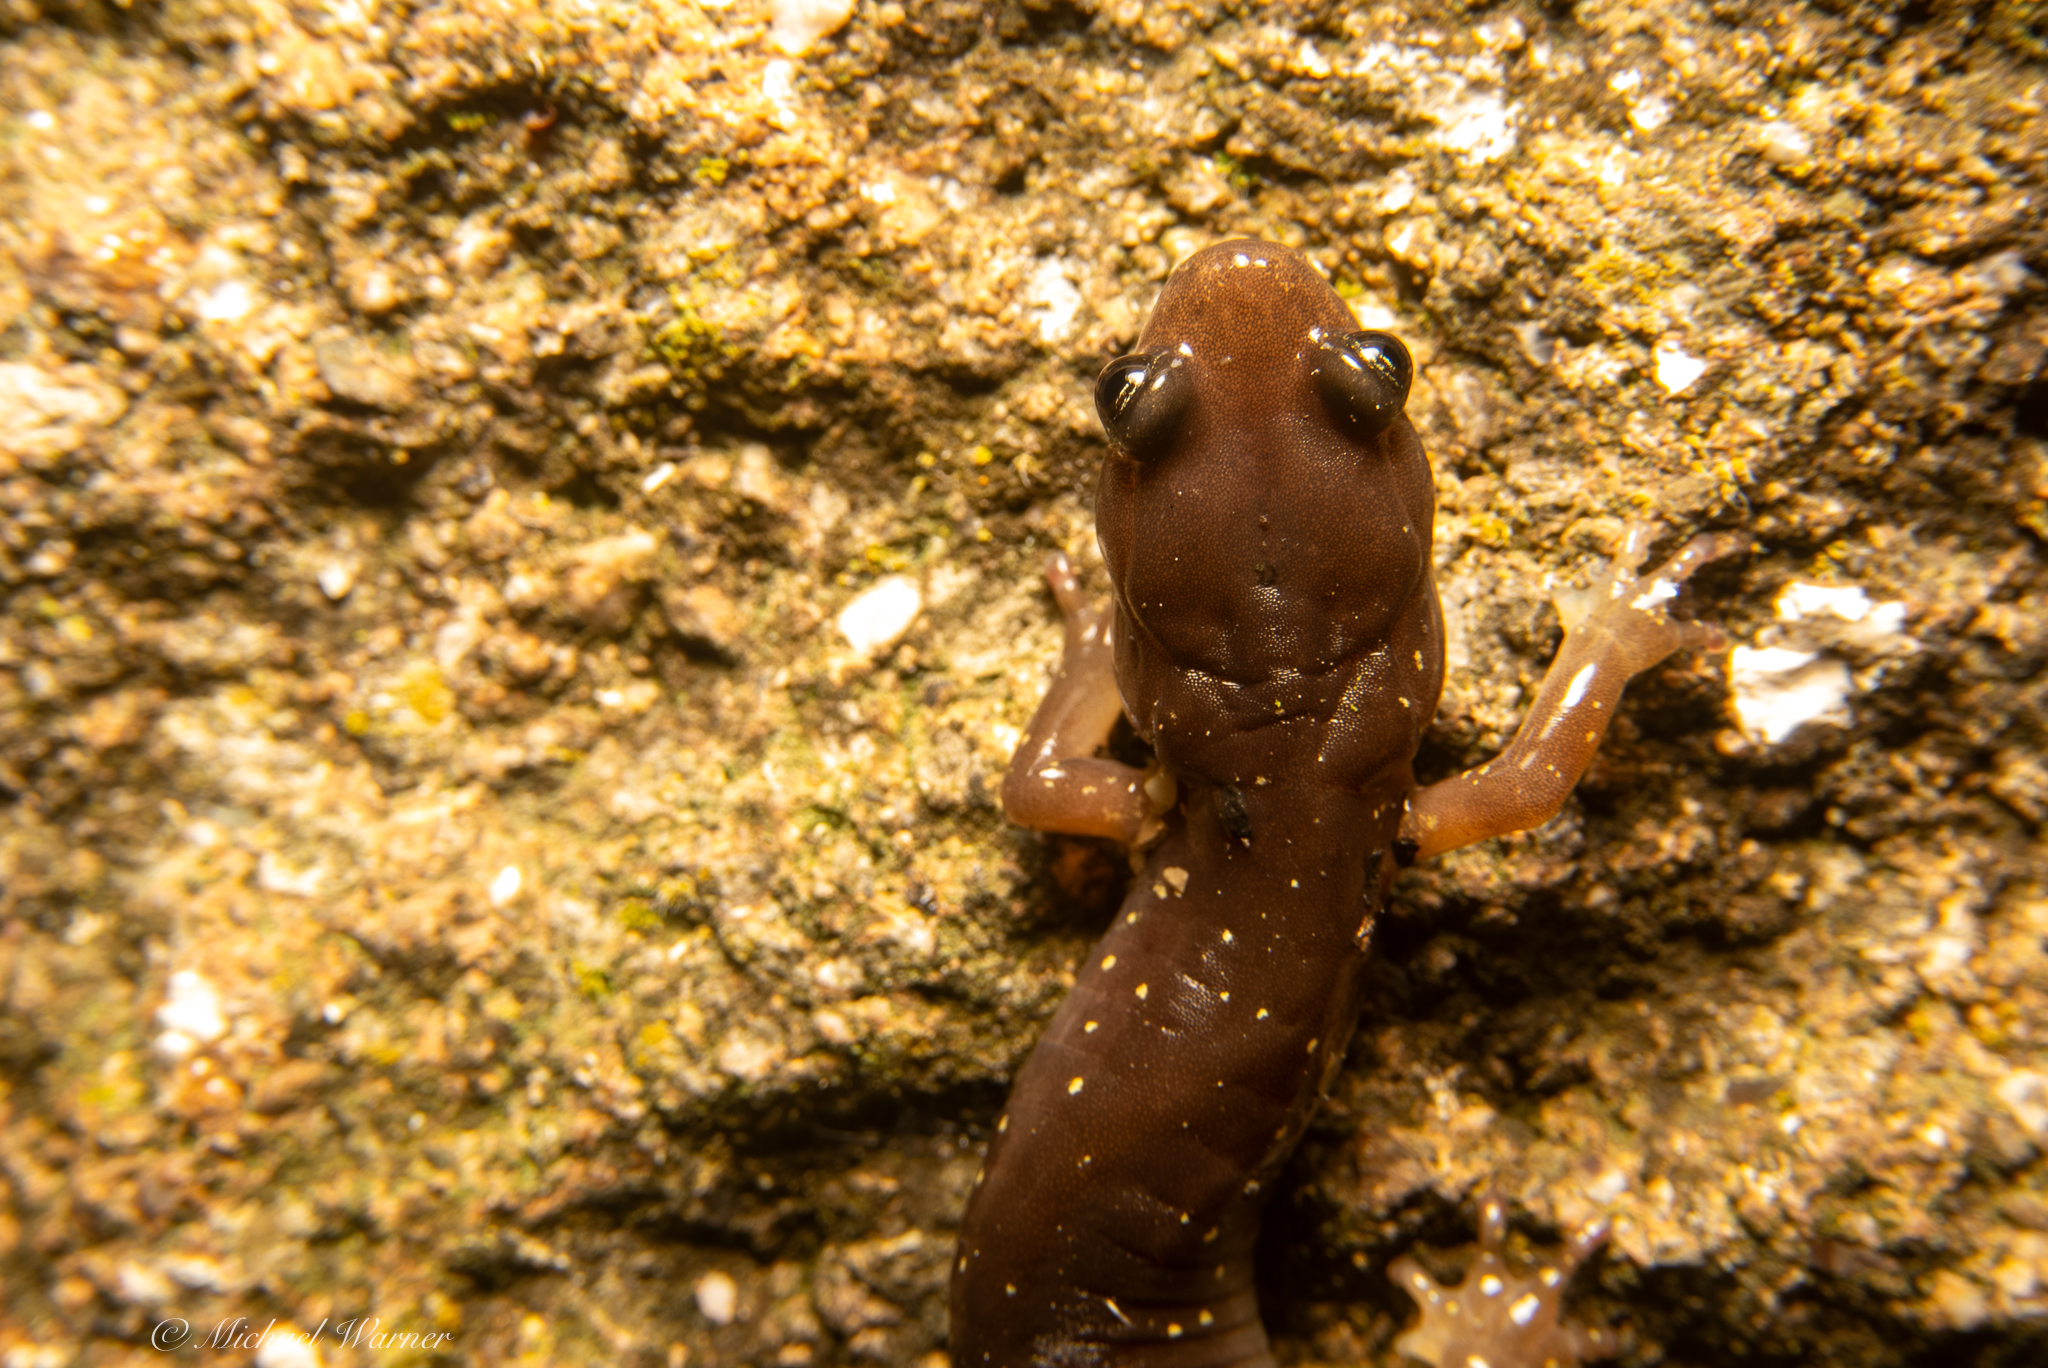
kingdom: Animalia
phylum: Chordata
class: Amphibia
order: Caudata
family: Plethodontidae
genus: Aneides
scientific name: Aneides lugubris
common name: Arboreal salamander
